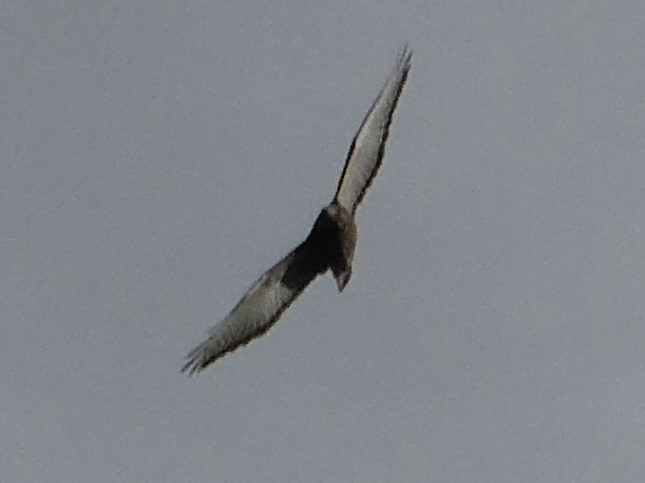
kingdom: Animalia
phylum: Chordata
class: Aves
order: Accipitriformes
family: Accipitridae
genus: Buteo
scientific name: Buteo platypterus
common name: Broad-winged hawk
